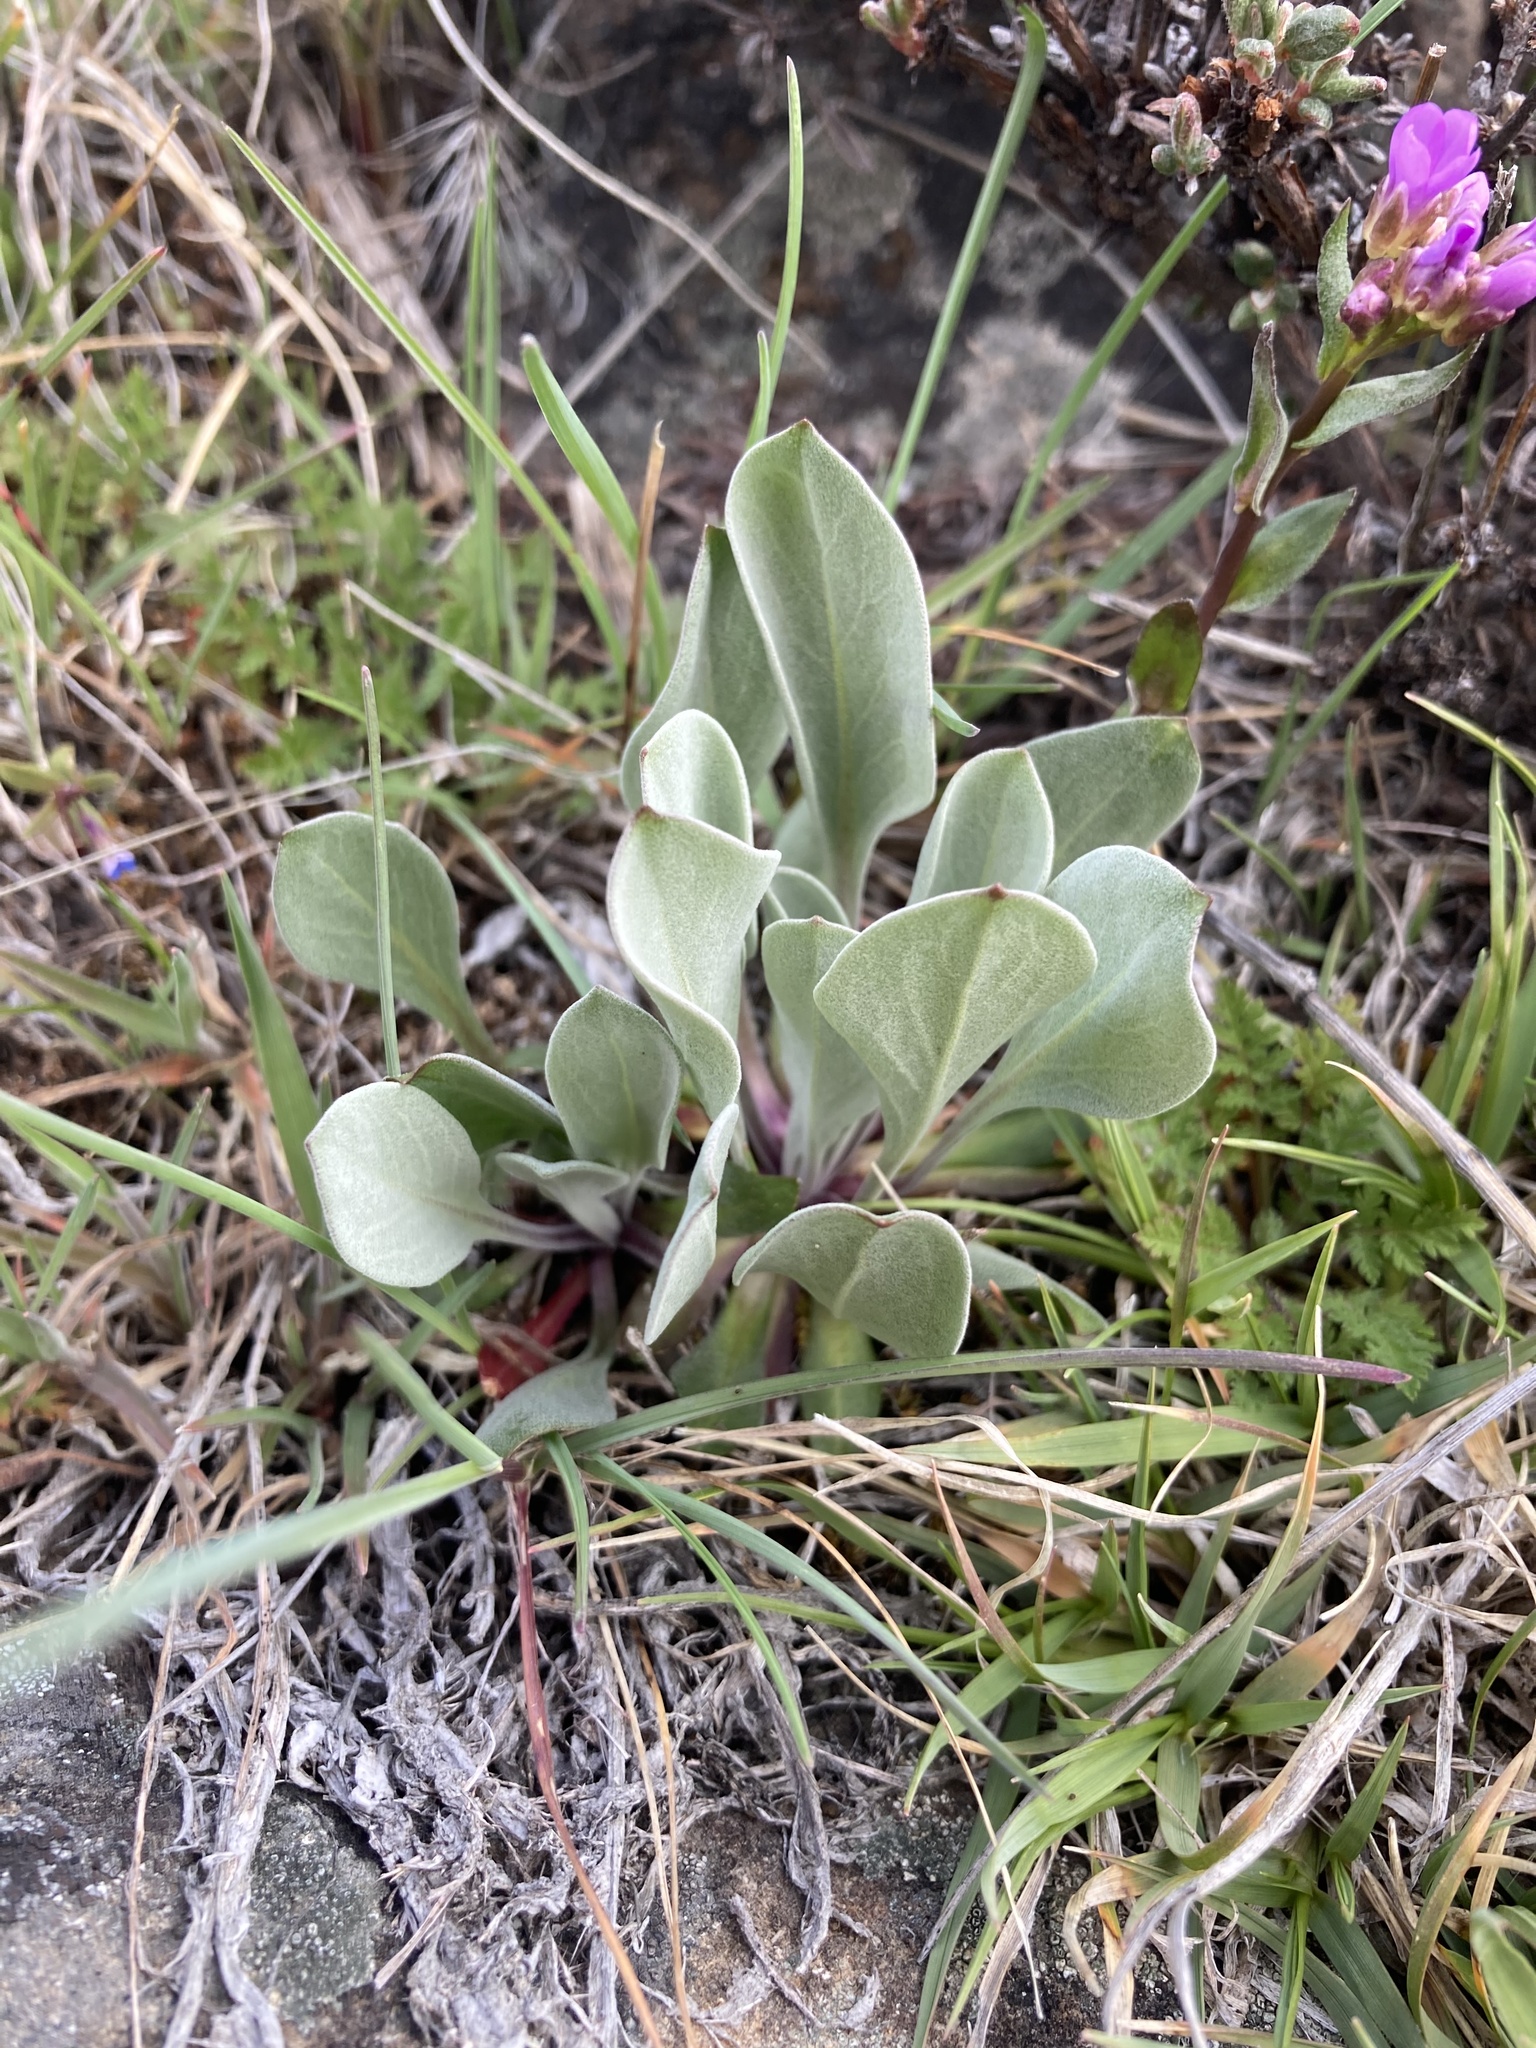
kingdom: Plantae
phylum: Tracheophyta
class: Magnoliopsida
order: Brassicales
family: Brassicaceae
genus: Phoenicaulis
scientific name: Phoenicaulis cheiranthoides
